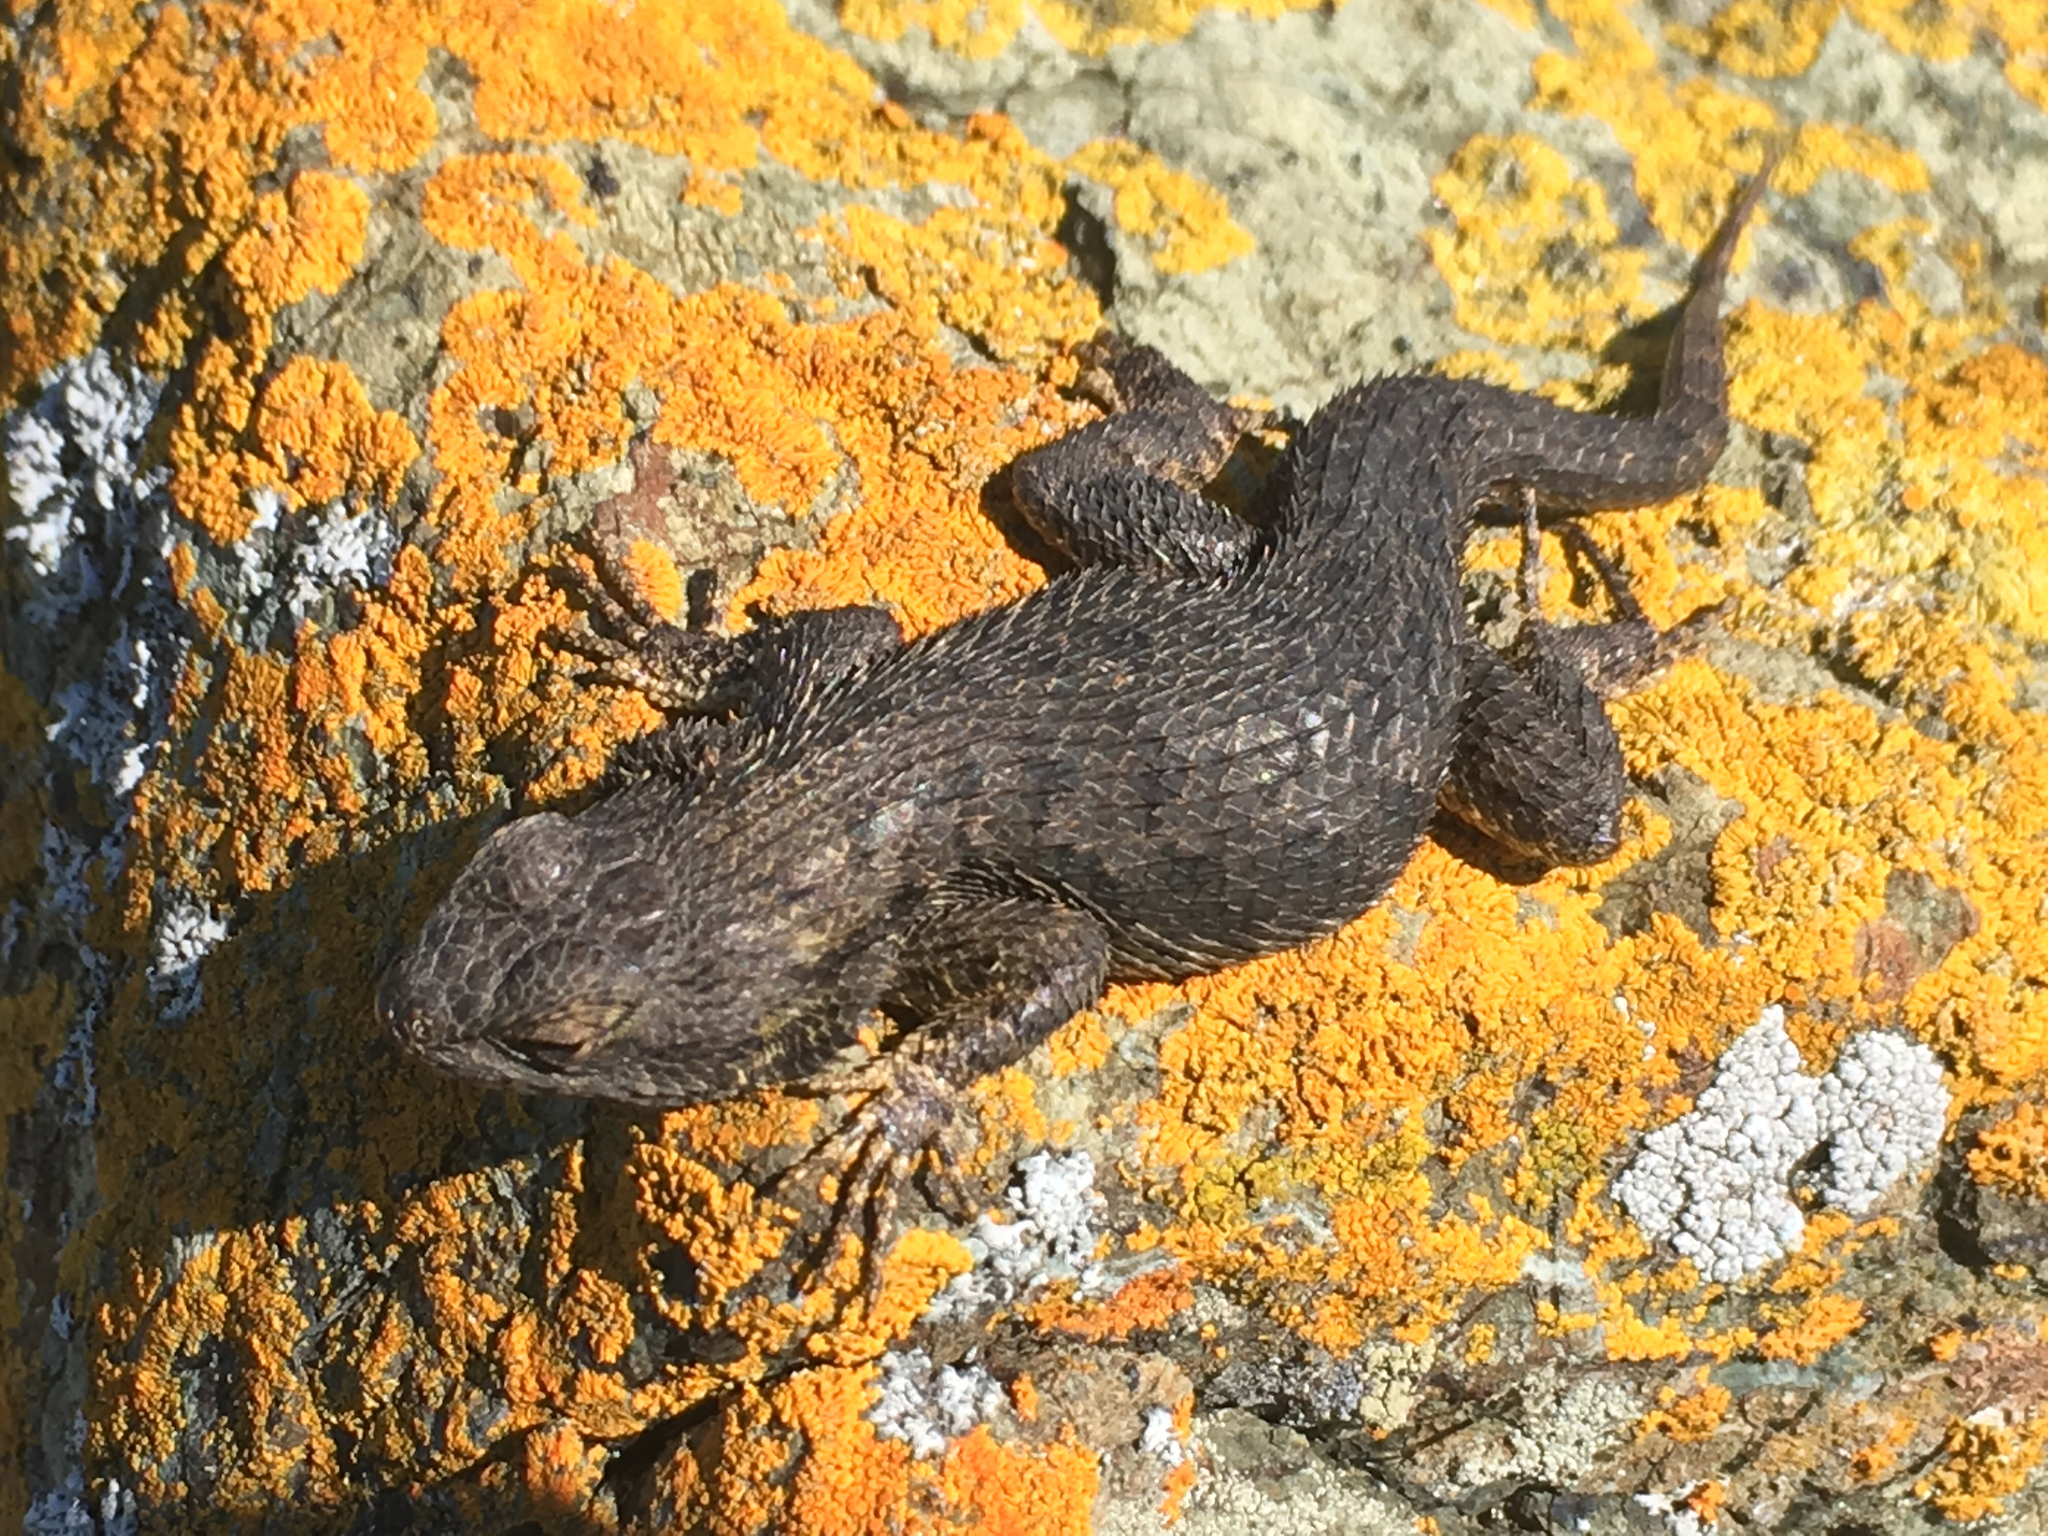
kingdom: Animalia
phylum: Chordata
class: Squamata
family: Phrynosomatidae
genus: Sceloporus
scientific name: Sceloporus occidentalis
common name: Western fence lizard
